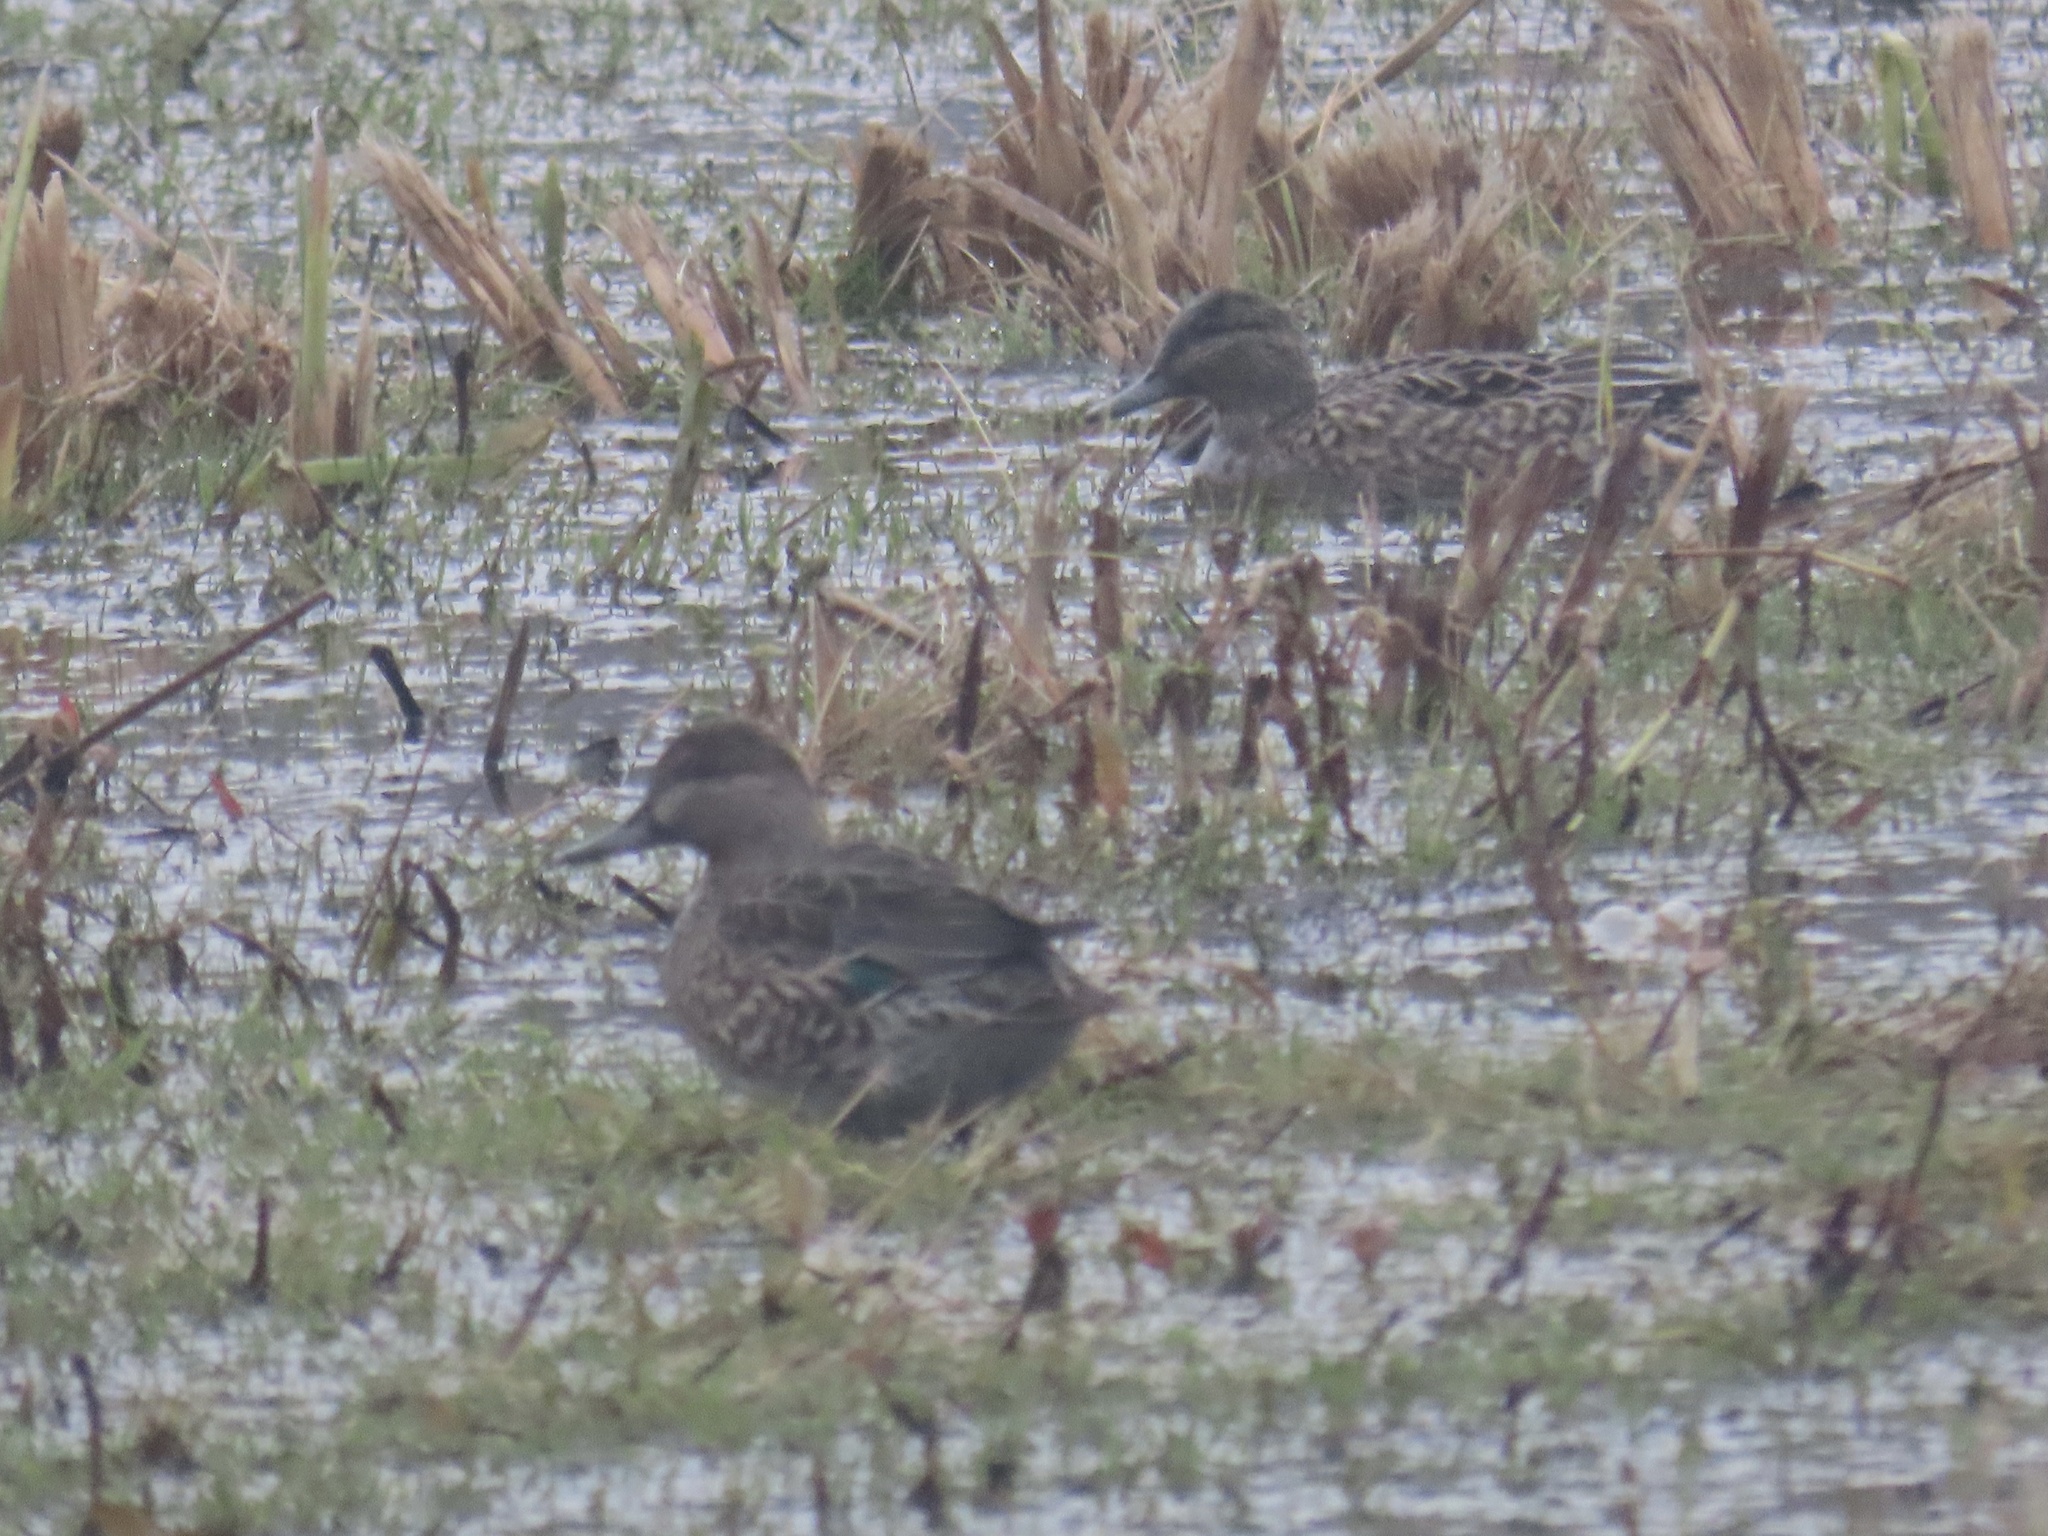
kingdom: Animalia
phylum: Chordata
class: Aves
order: Anseriformes
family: Anatidae
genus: Anas
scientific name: Anas crecca
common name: Eurasian teal
